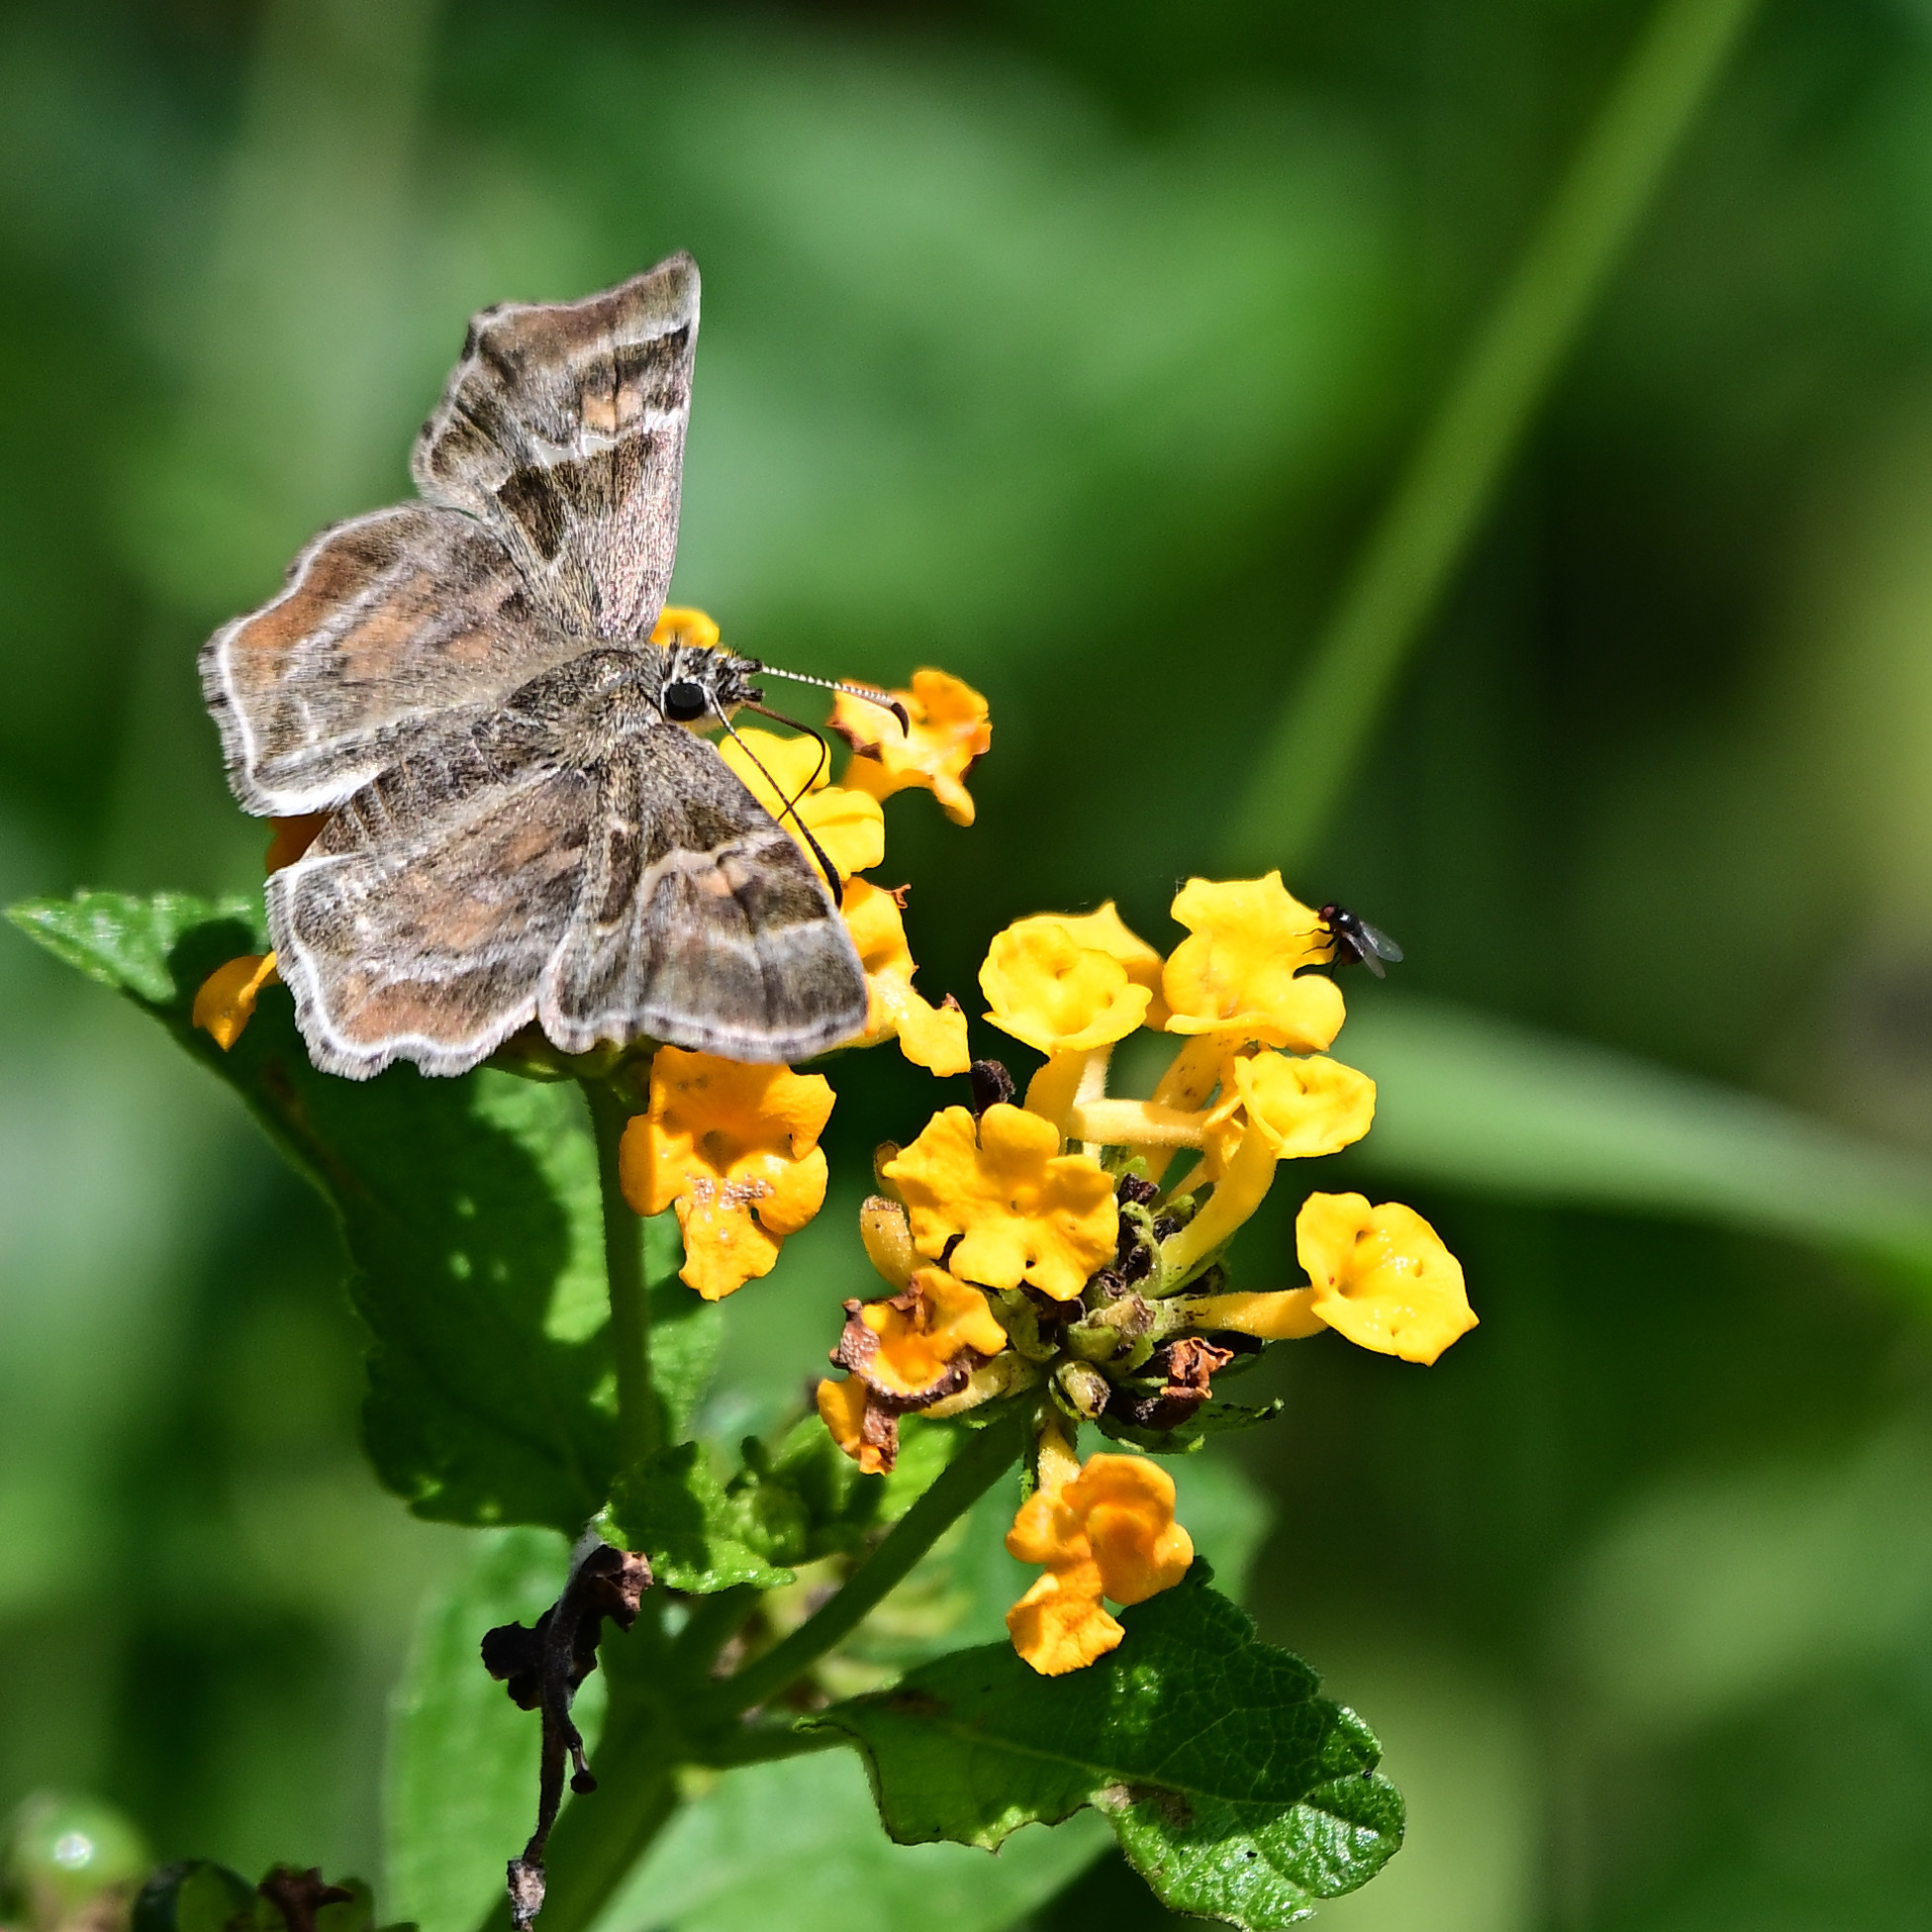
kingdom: Animalia
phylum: Arthropoda
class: Insecta
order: Lepidoptera
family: Hesperiidae
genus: Systasea
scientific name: Systasea zampa
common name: Arizona powdered-skipper
